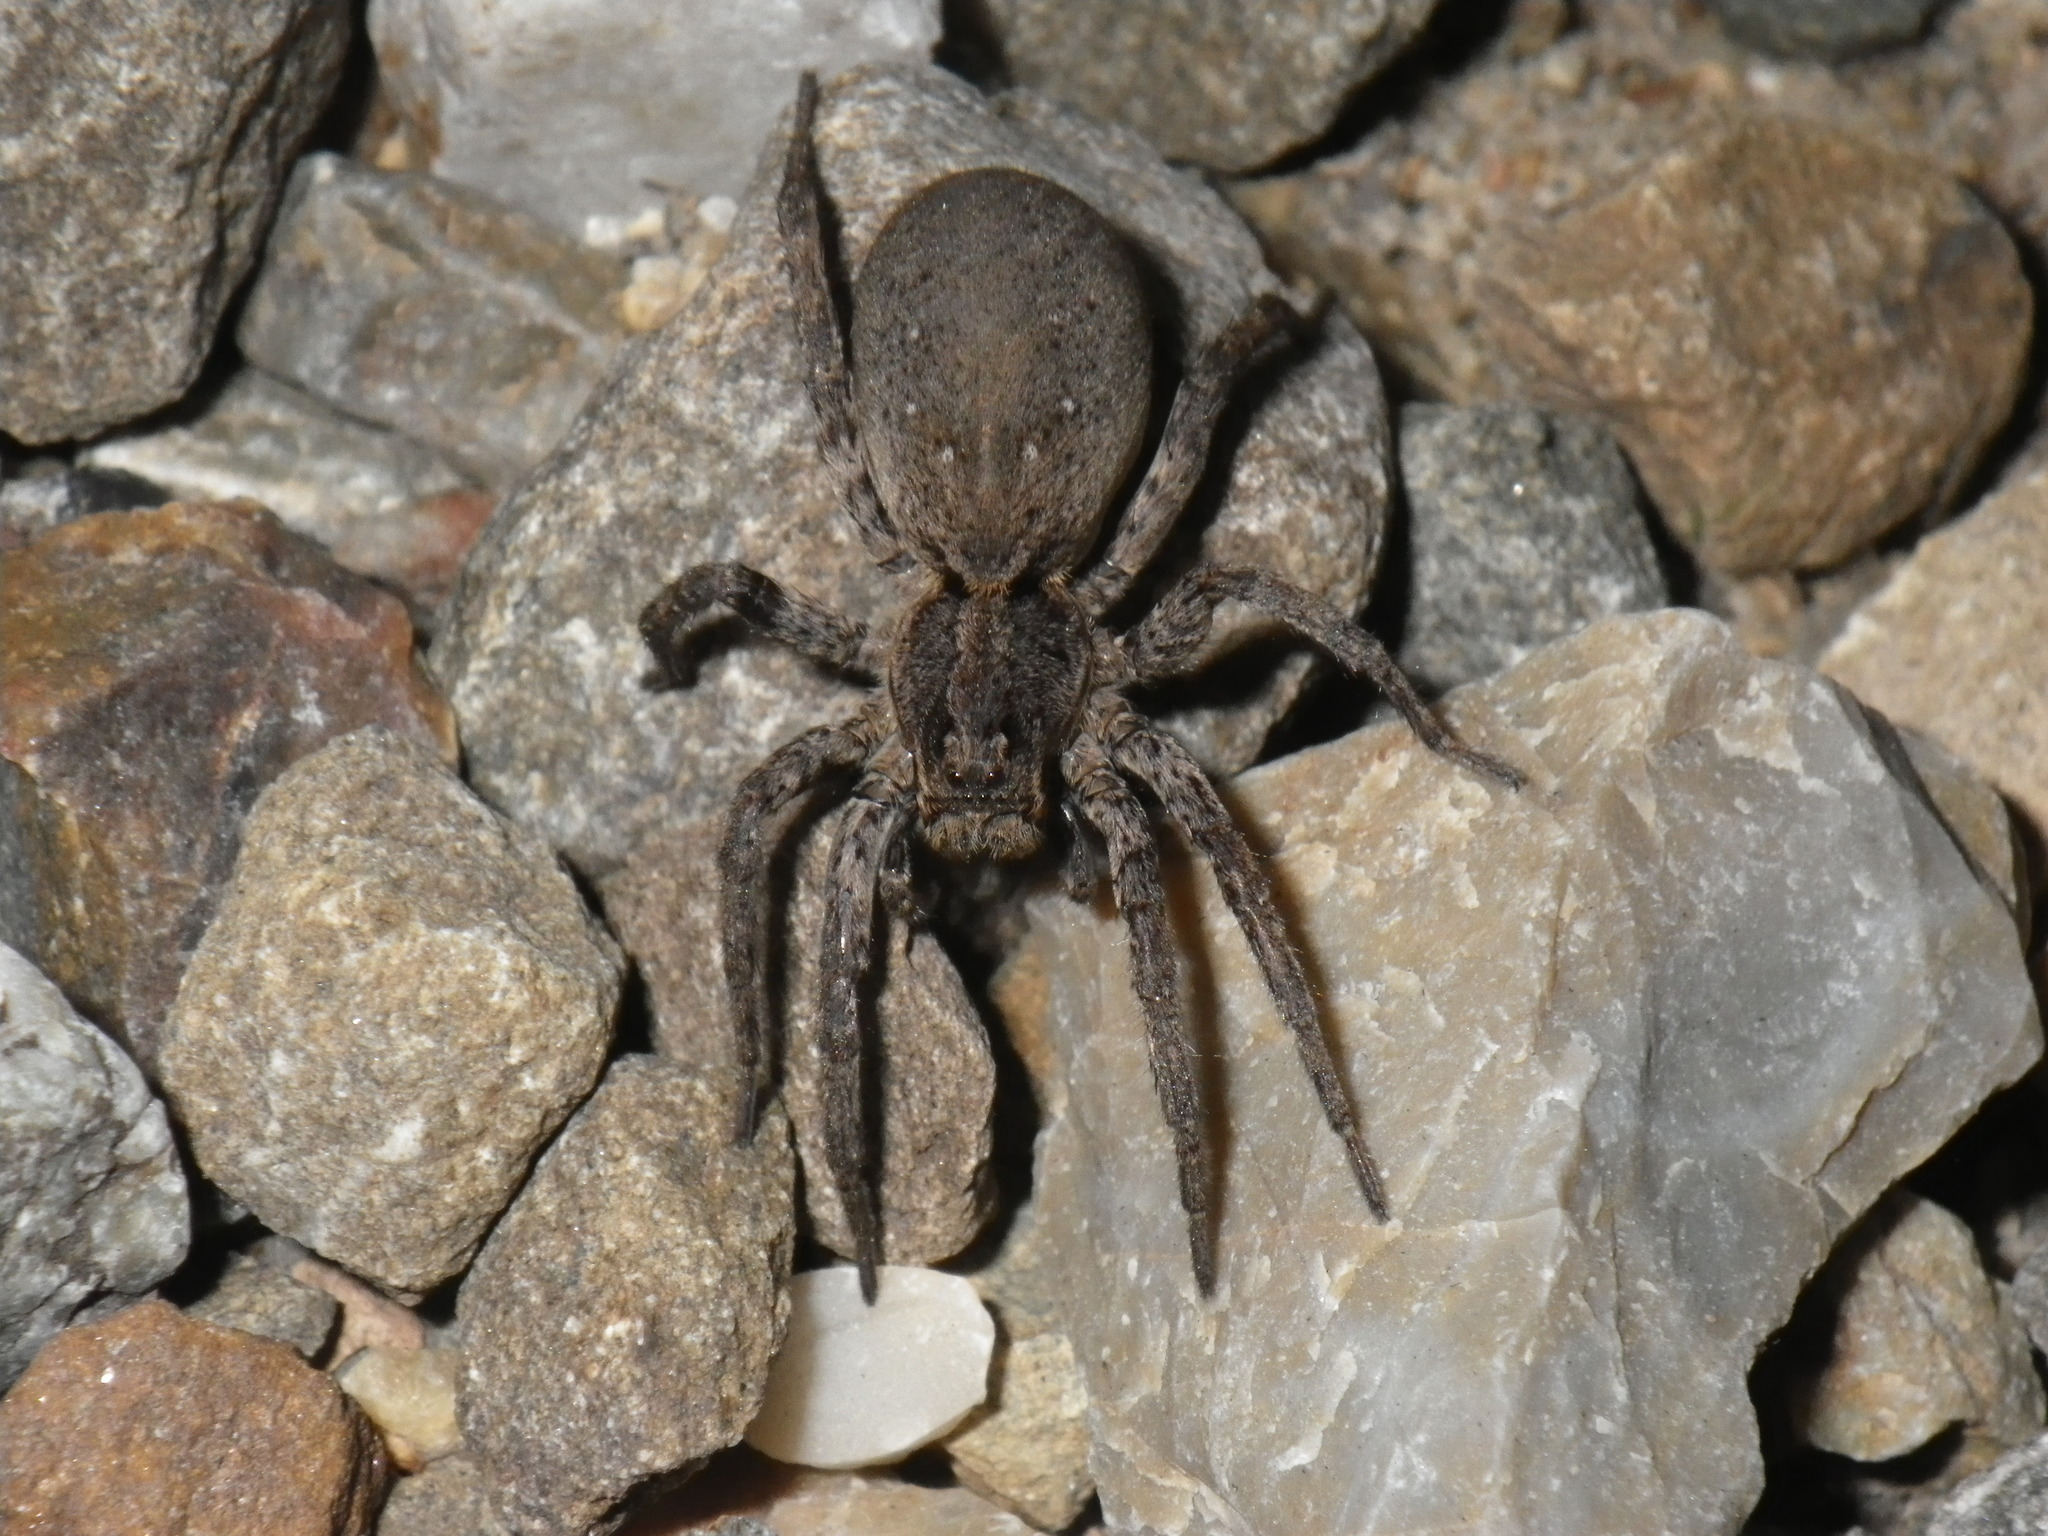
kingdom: Animalia
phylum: Arthropoda
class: Arachnida
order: Araneae
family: Lycosidae
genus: Alopecosa
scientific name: Alopecosa kochi
